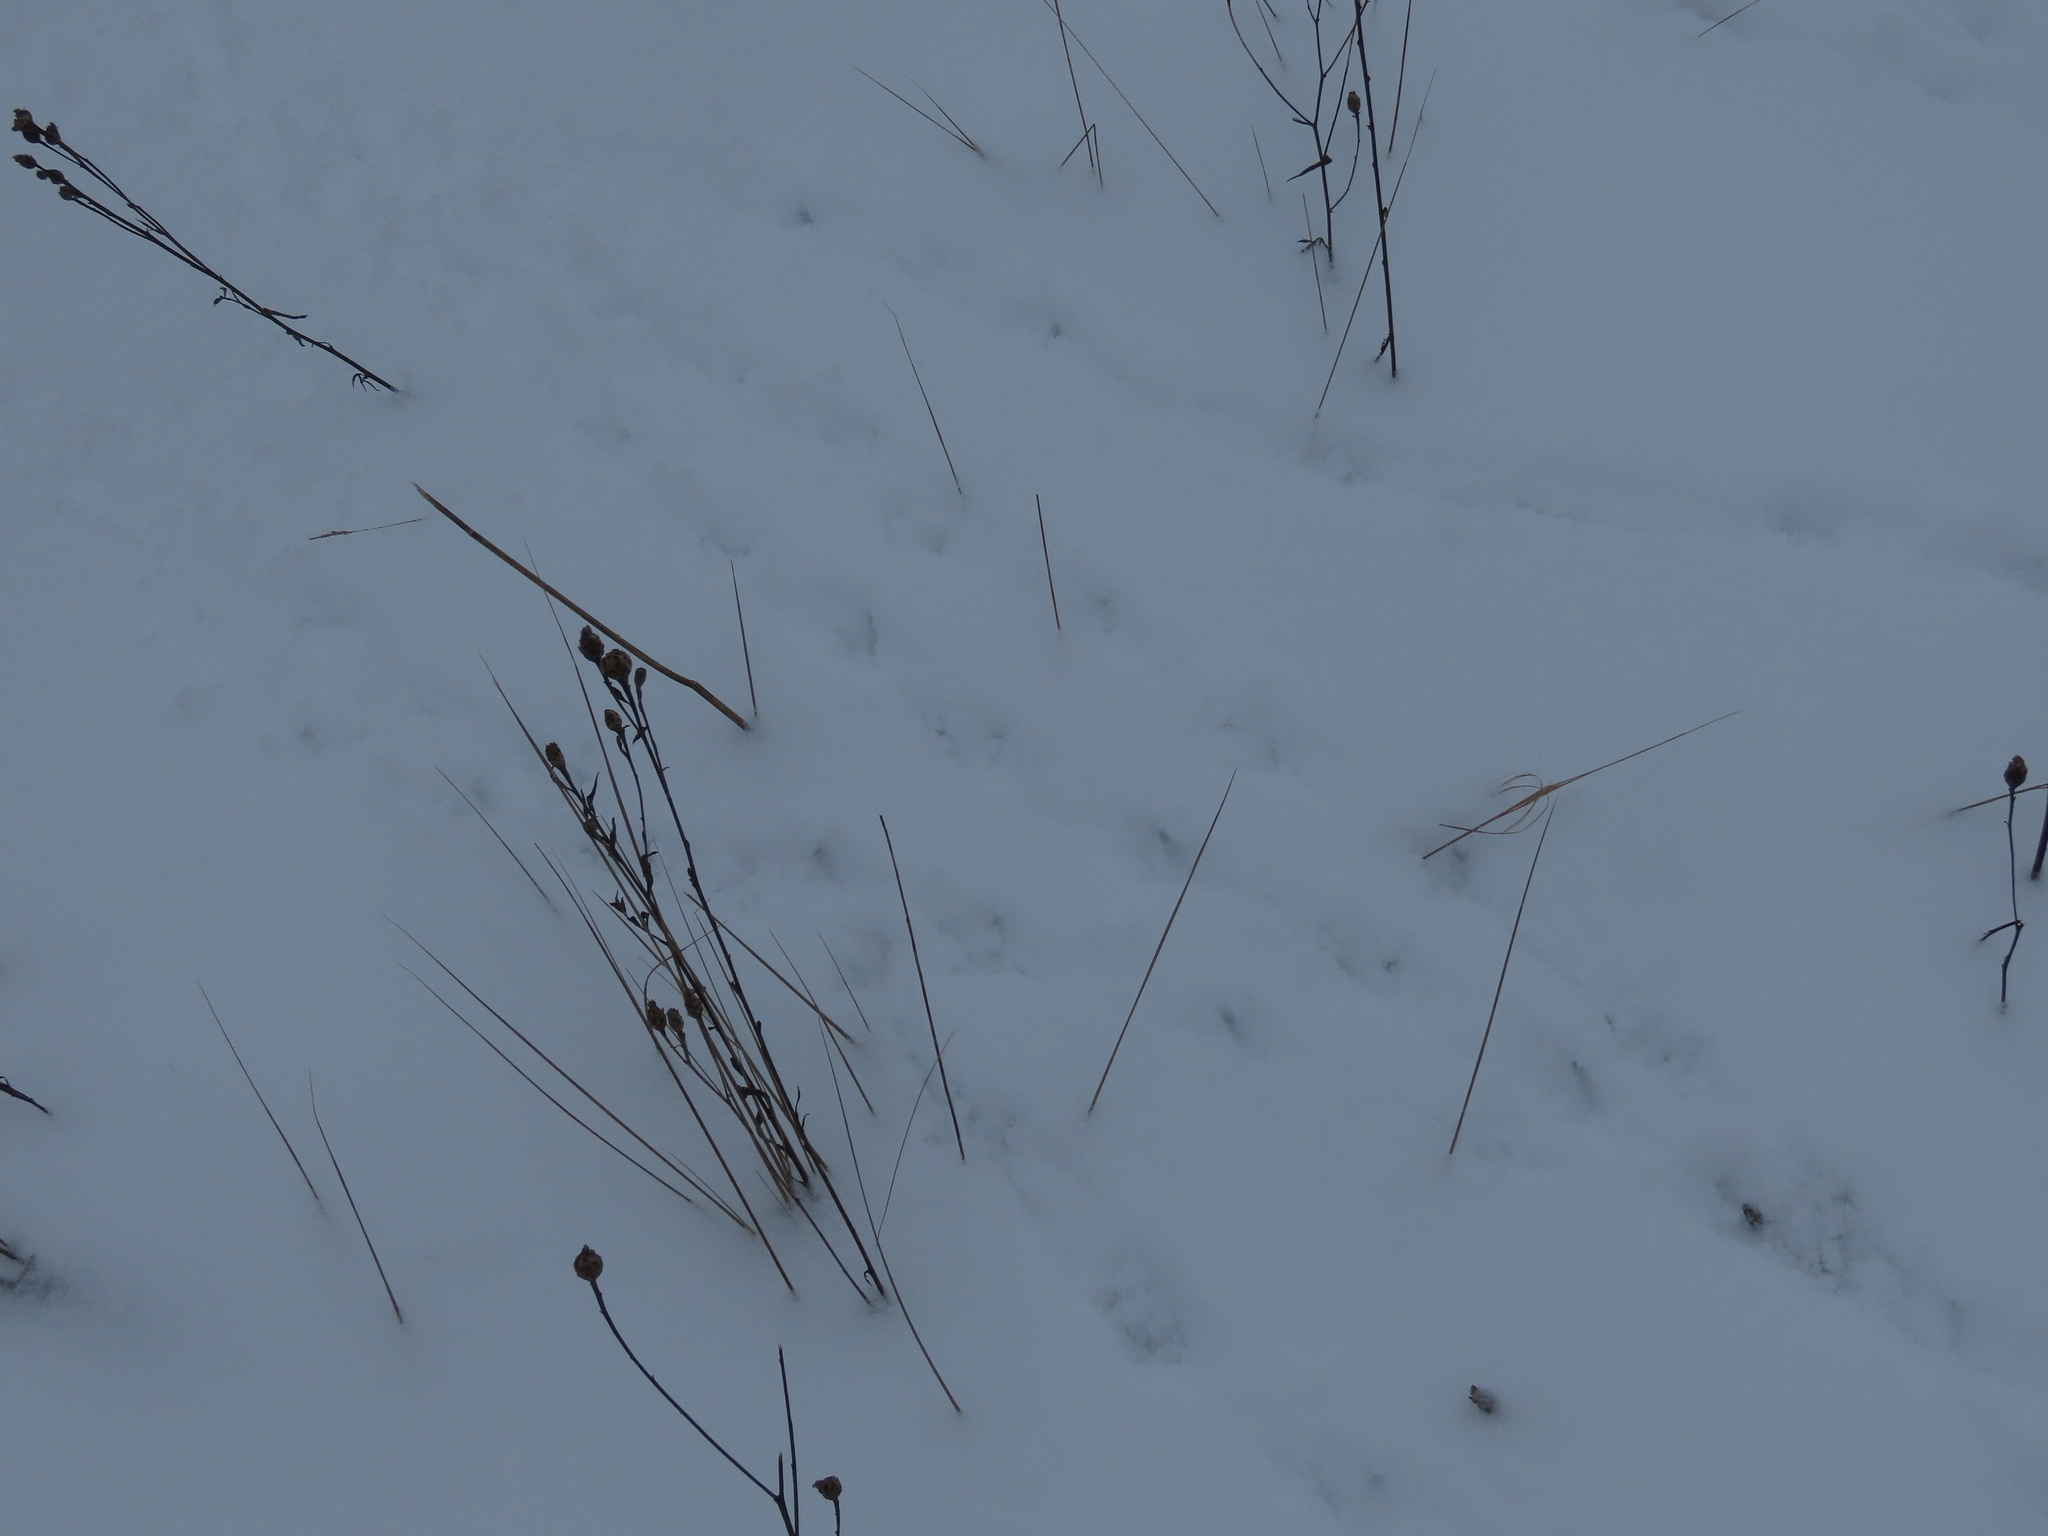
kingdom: Animalia
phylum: Chordata
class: Aves
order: Galliformes
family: Phasianidae
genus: Perdix
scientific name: Perdix perdix
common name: Grey partridge
